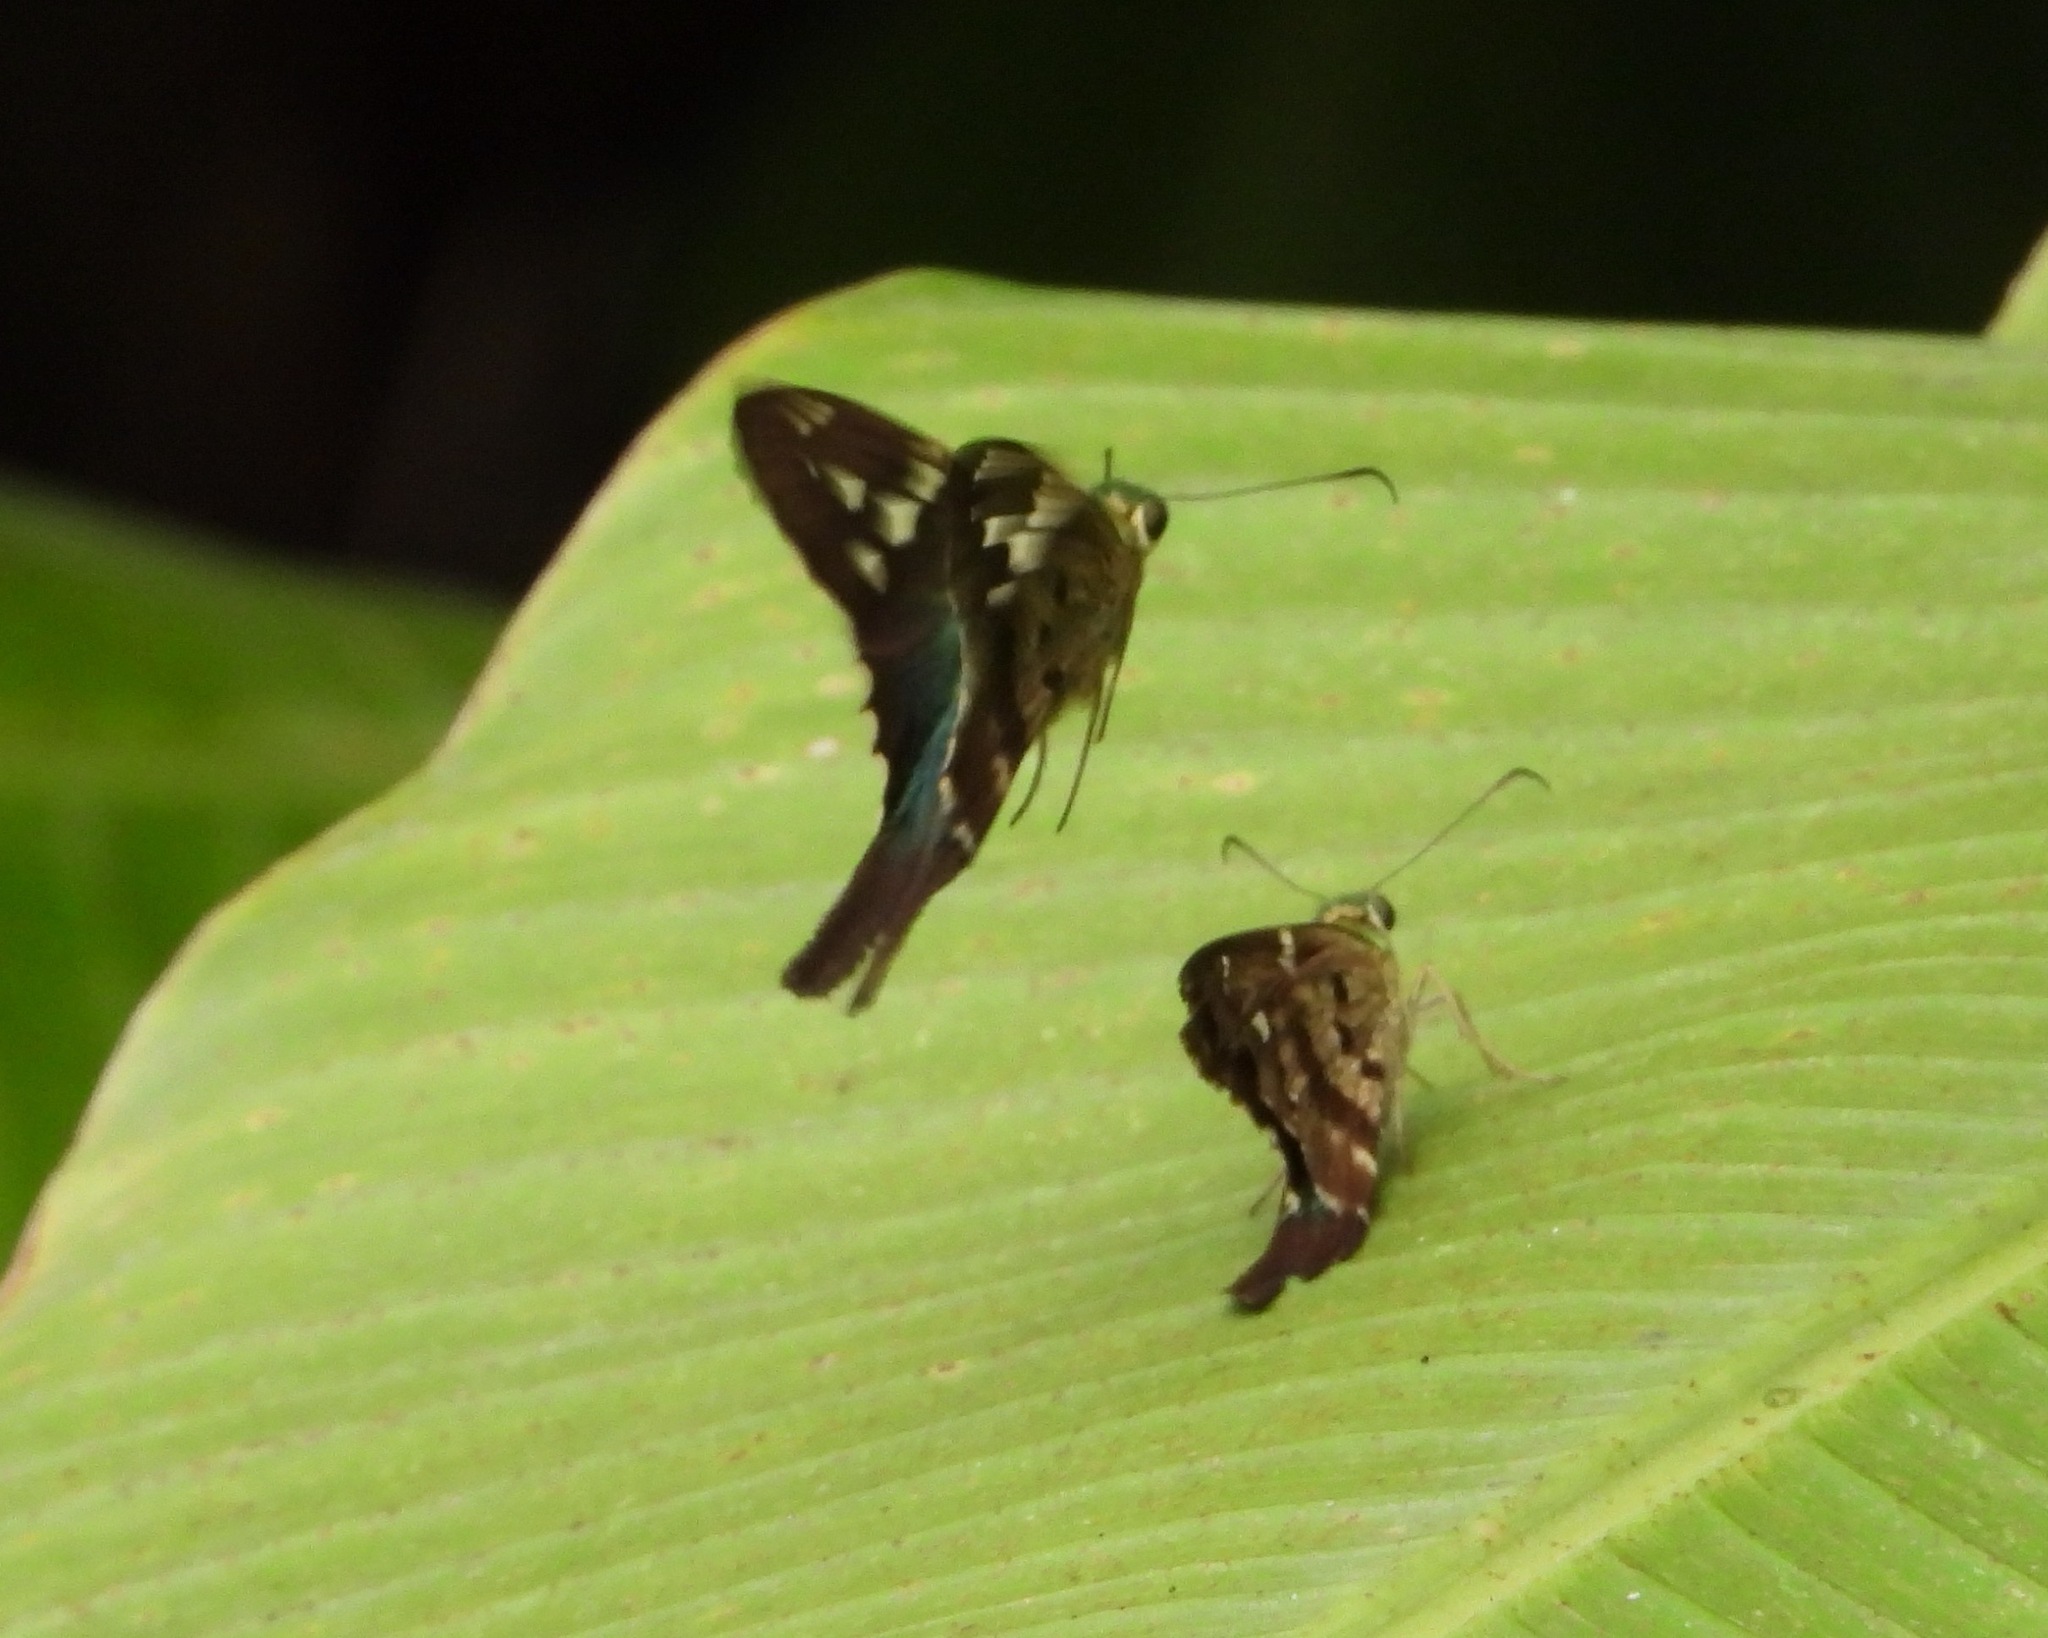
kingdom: Animalia
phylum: Arthropoda
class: Insecta
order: Lepidoptera
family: Hesperiidae
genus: Urbanus
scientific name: Urbanus esmeraldus
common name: Esmeralda longtail
